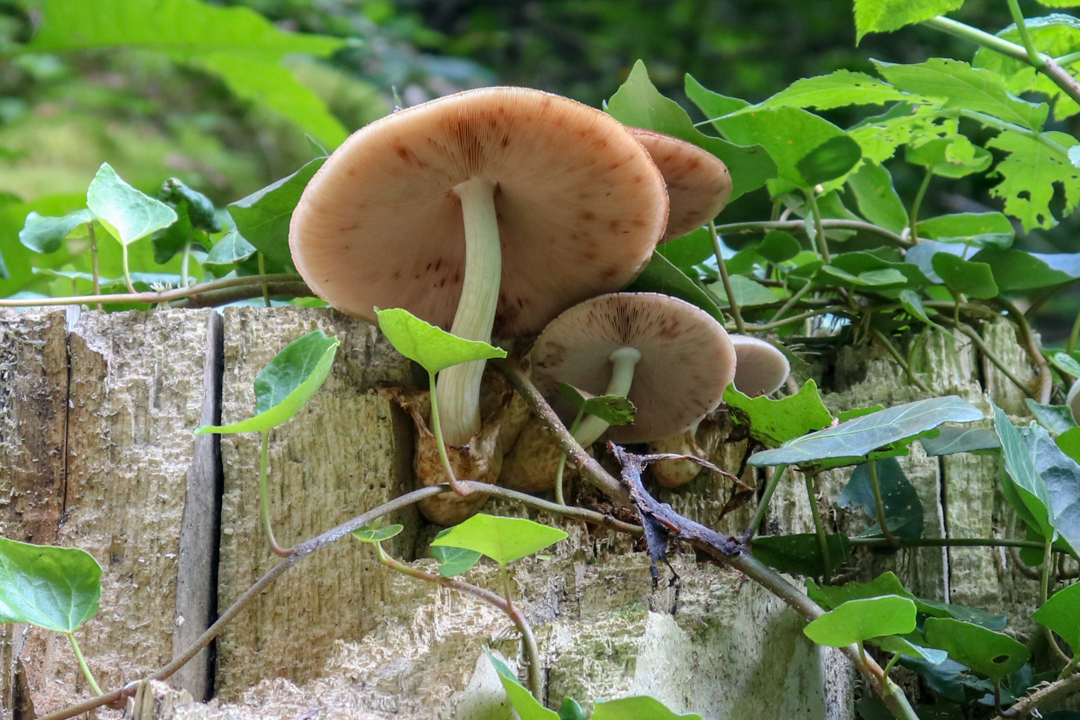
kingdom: Fungi
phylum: Basidiomycota
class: Agaricomycetes
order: Agaricales
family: Pluteaceae
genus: Volvariella
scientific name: Volvariella bombycina
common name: Silky rosegill
